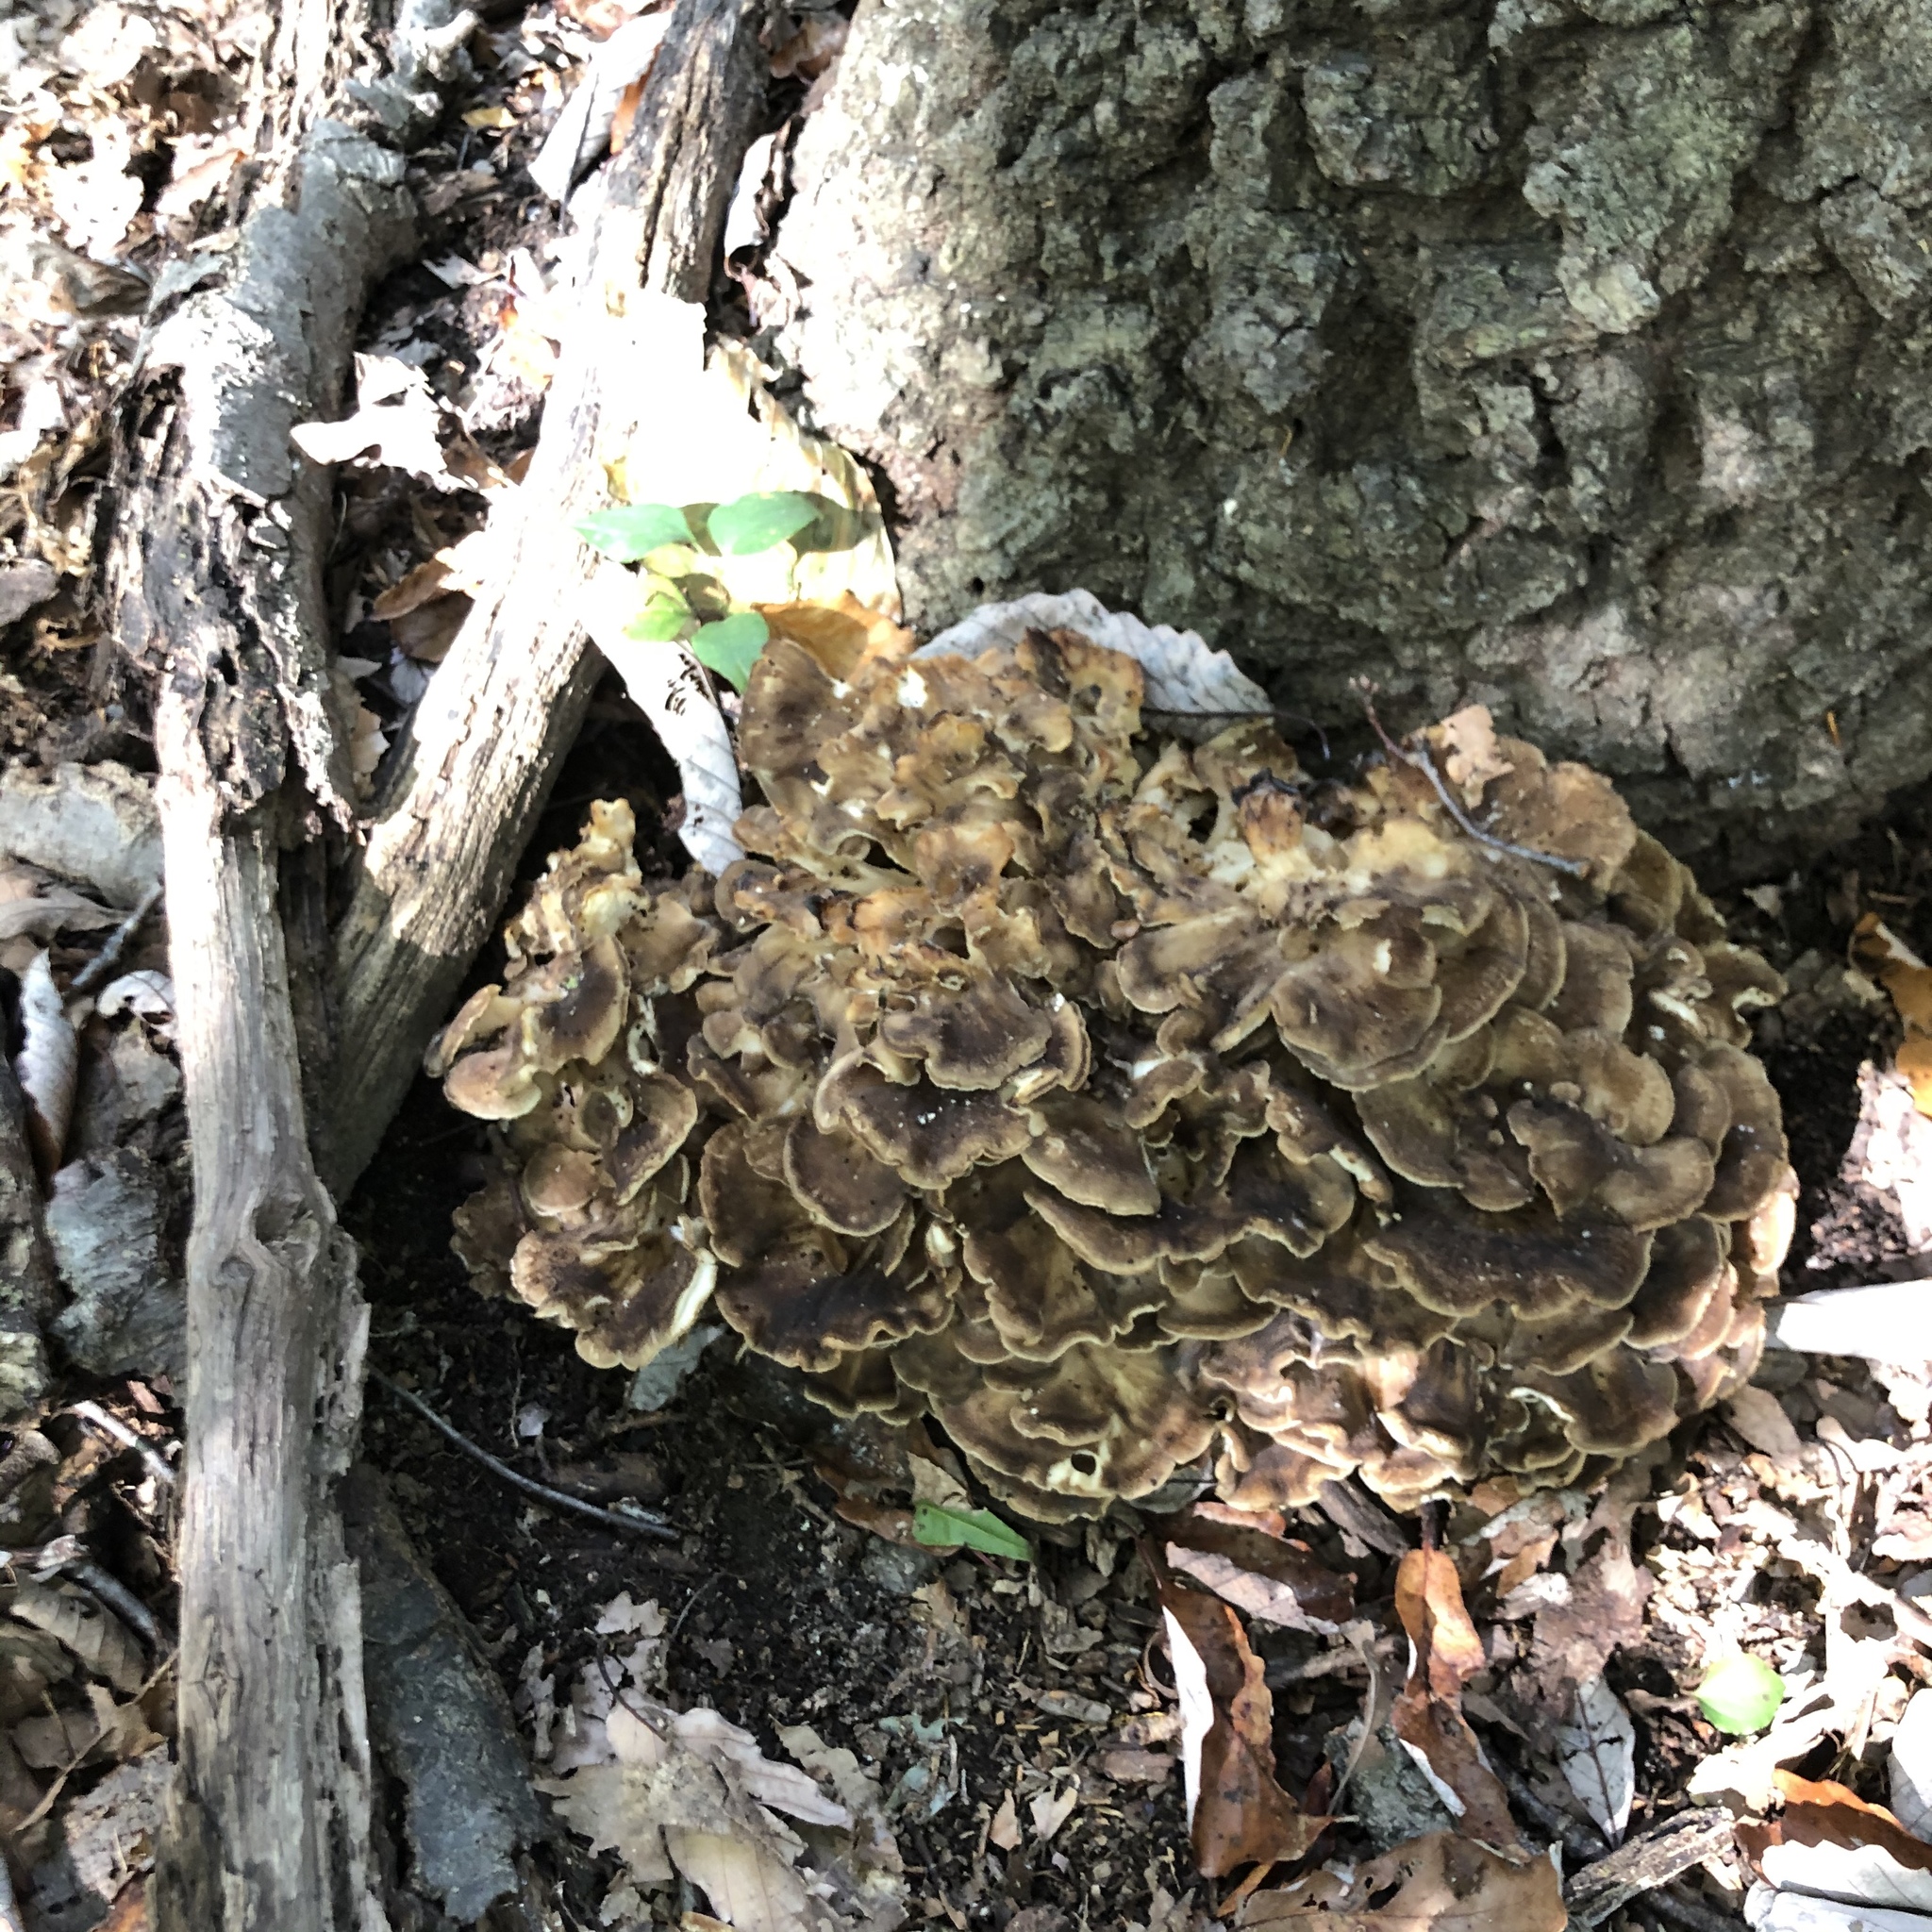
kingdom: Fungi
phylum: Basidiomycota
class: Agaricomycetes
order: Polyporales
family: Grifolaceae
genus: Grifola
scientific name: Grifola frondosa
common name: Hen of the woods
